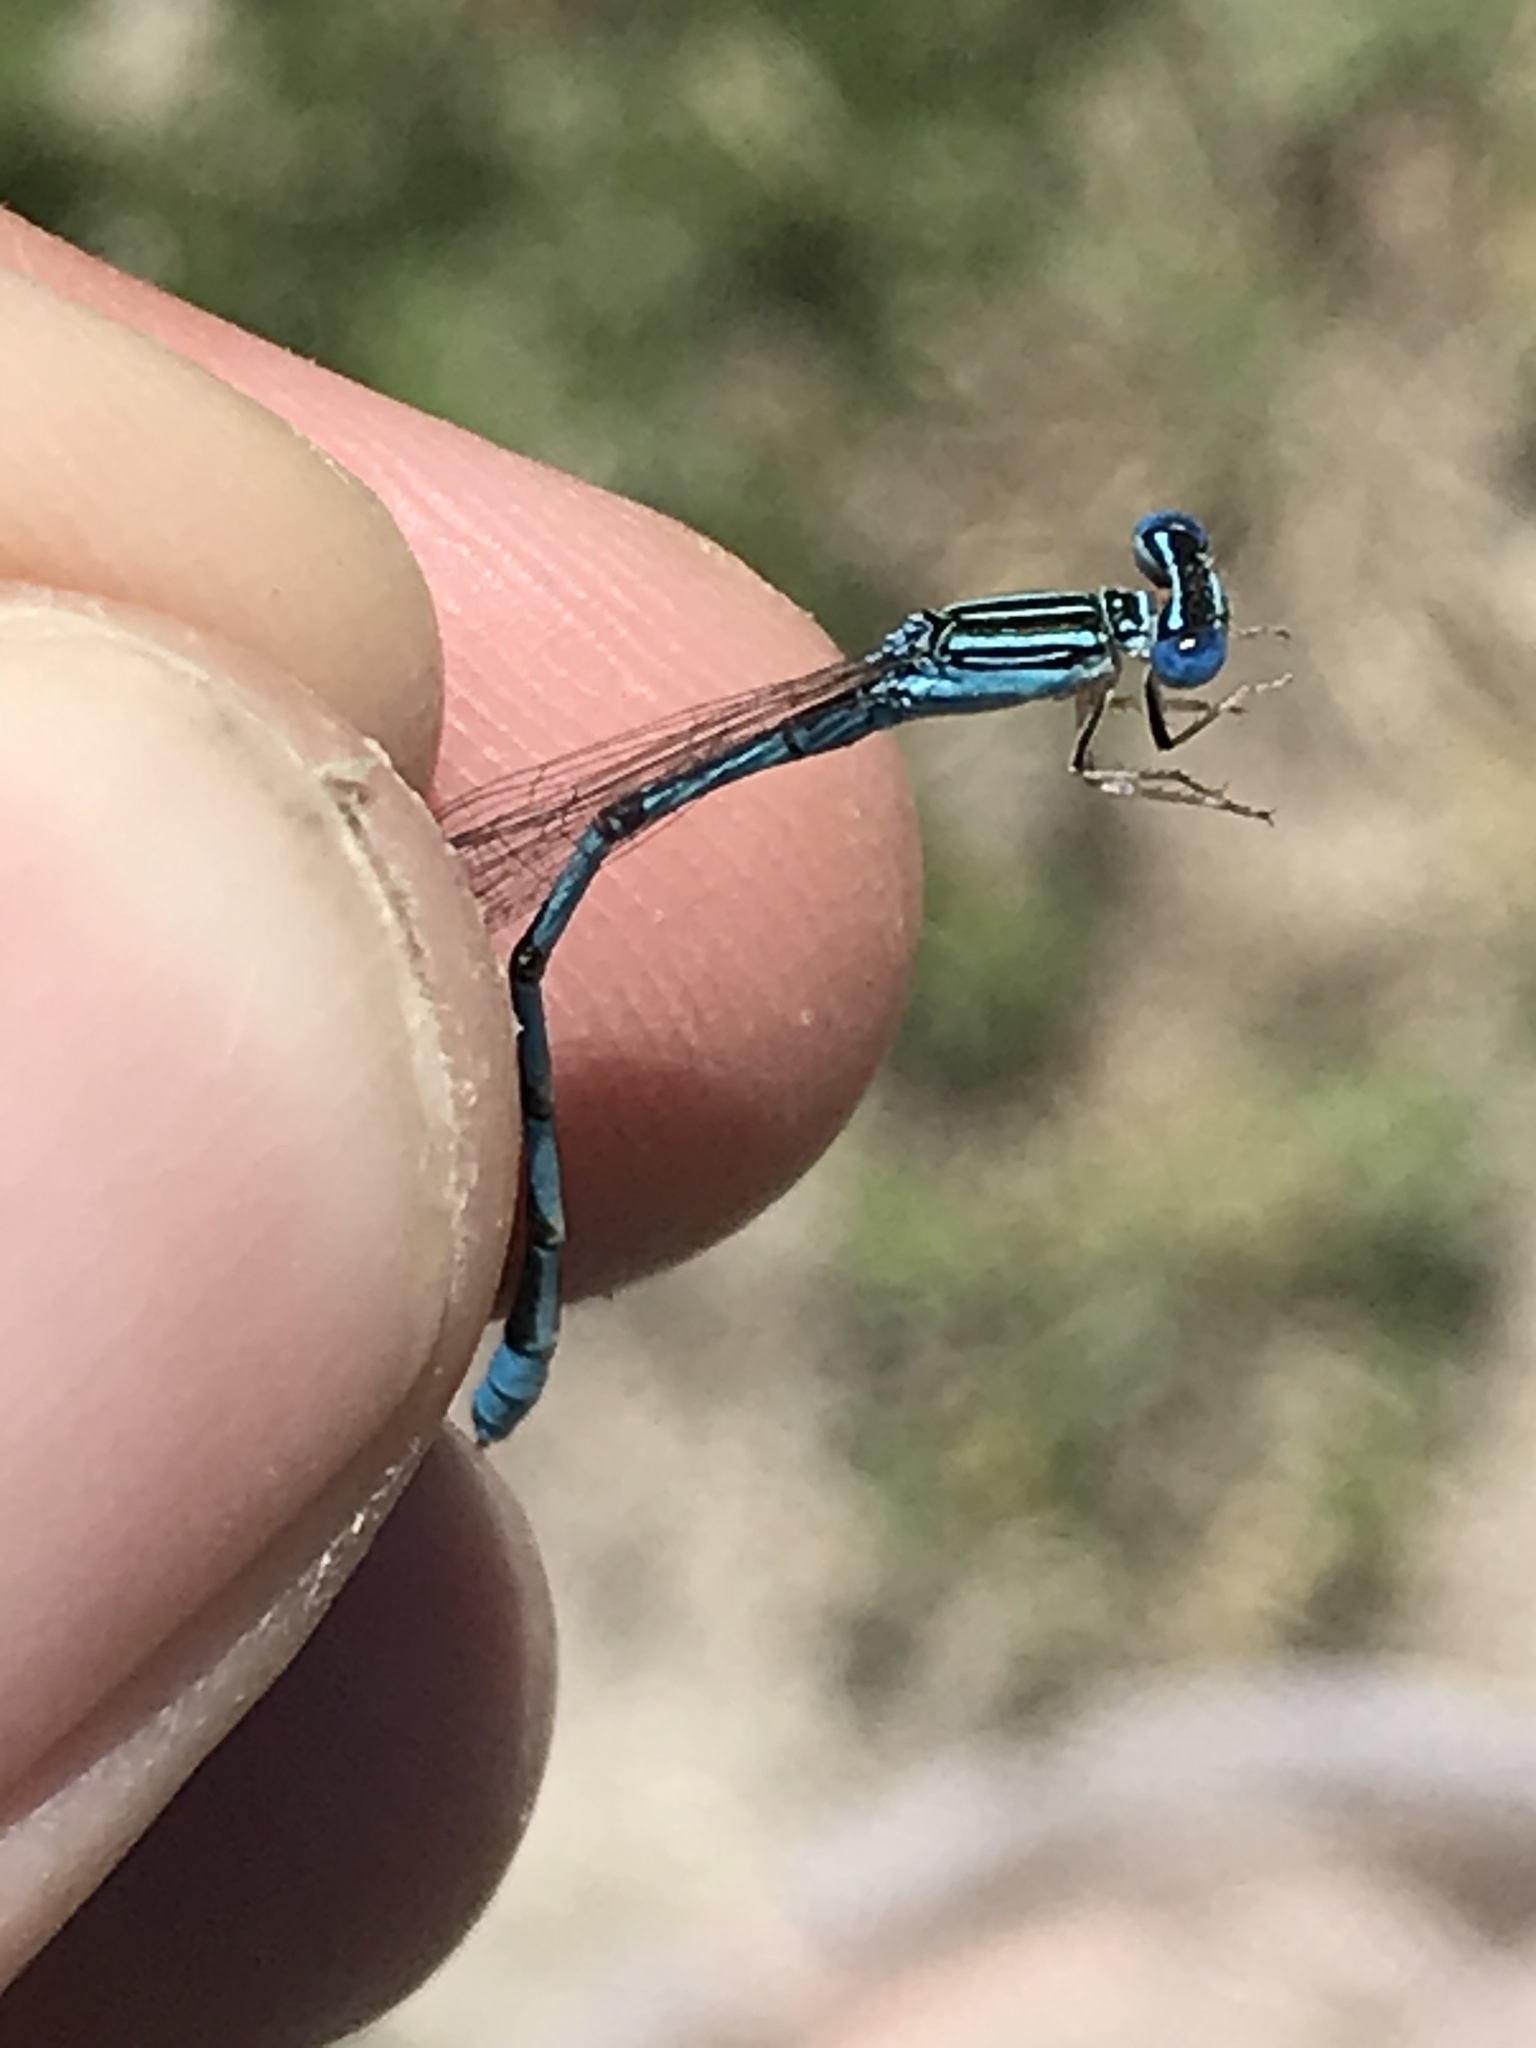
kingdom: Animalia
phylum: Arthropoda
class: Insecta
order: Odonata
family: Coenagrionidae
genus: Enallagma
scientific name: Enallagma basidens
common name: Double-striped bluet
